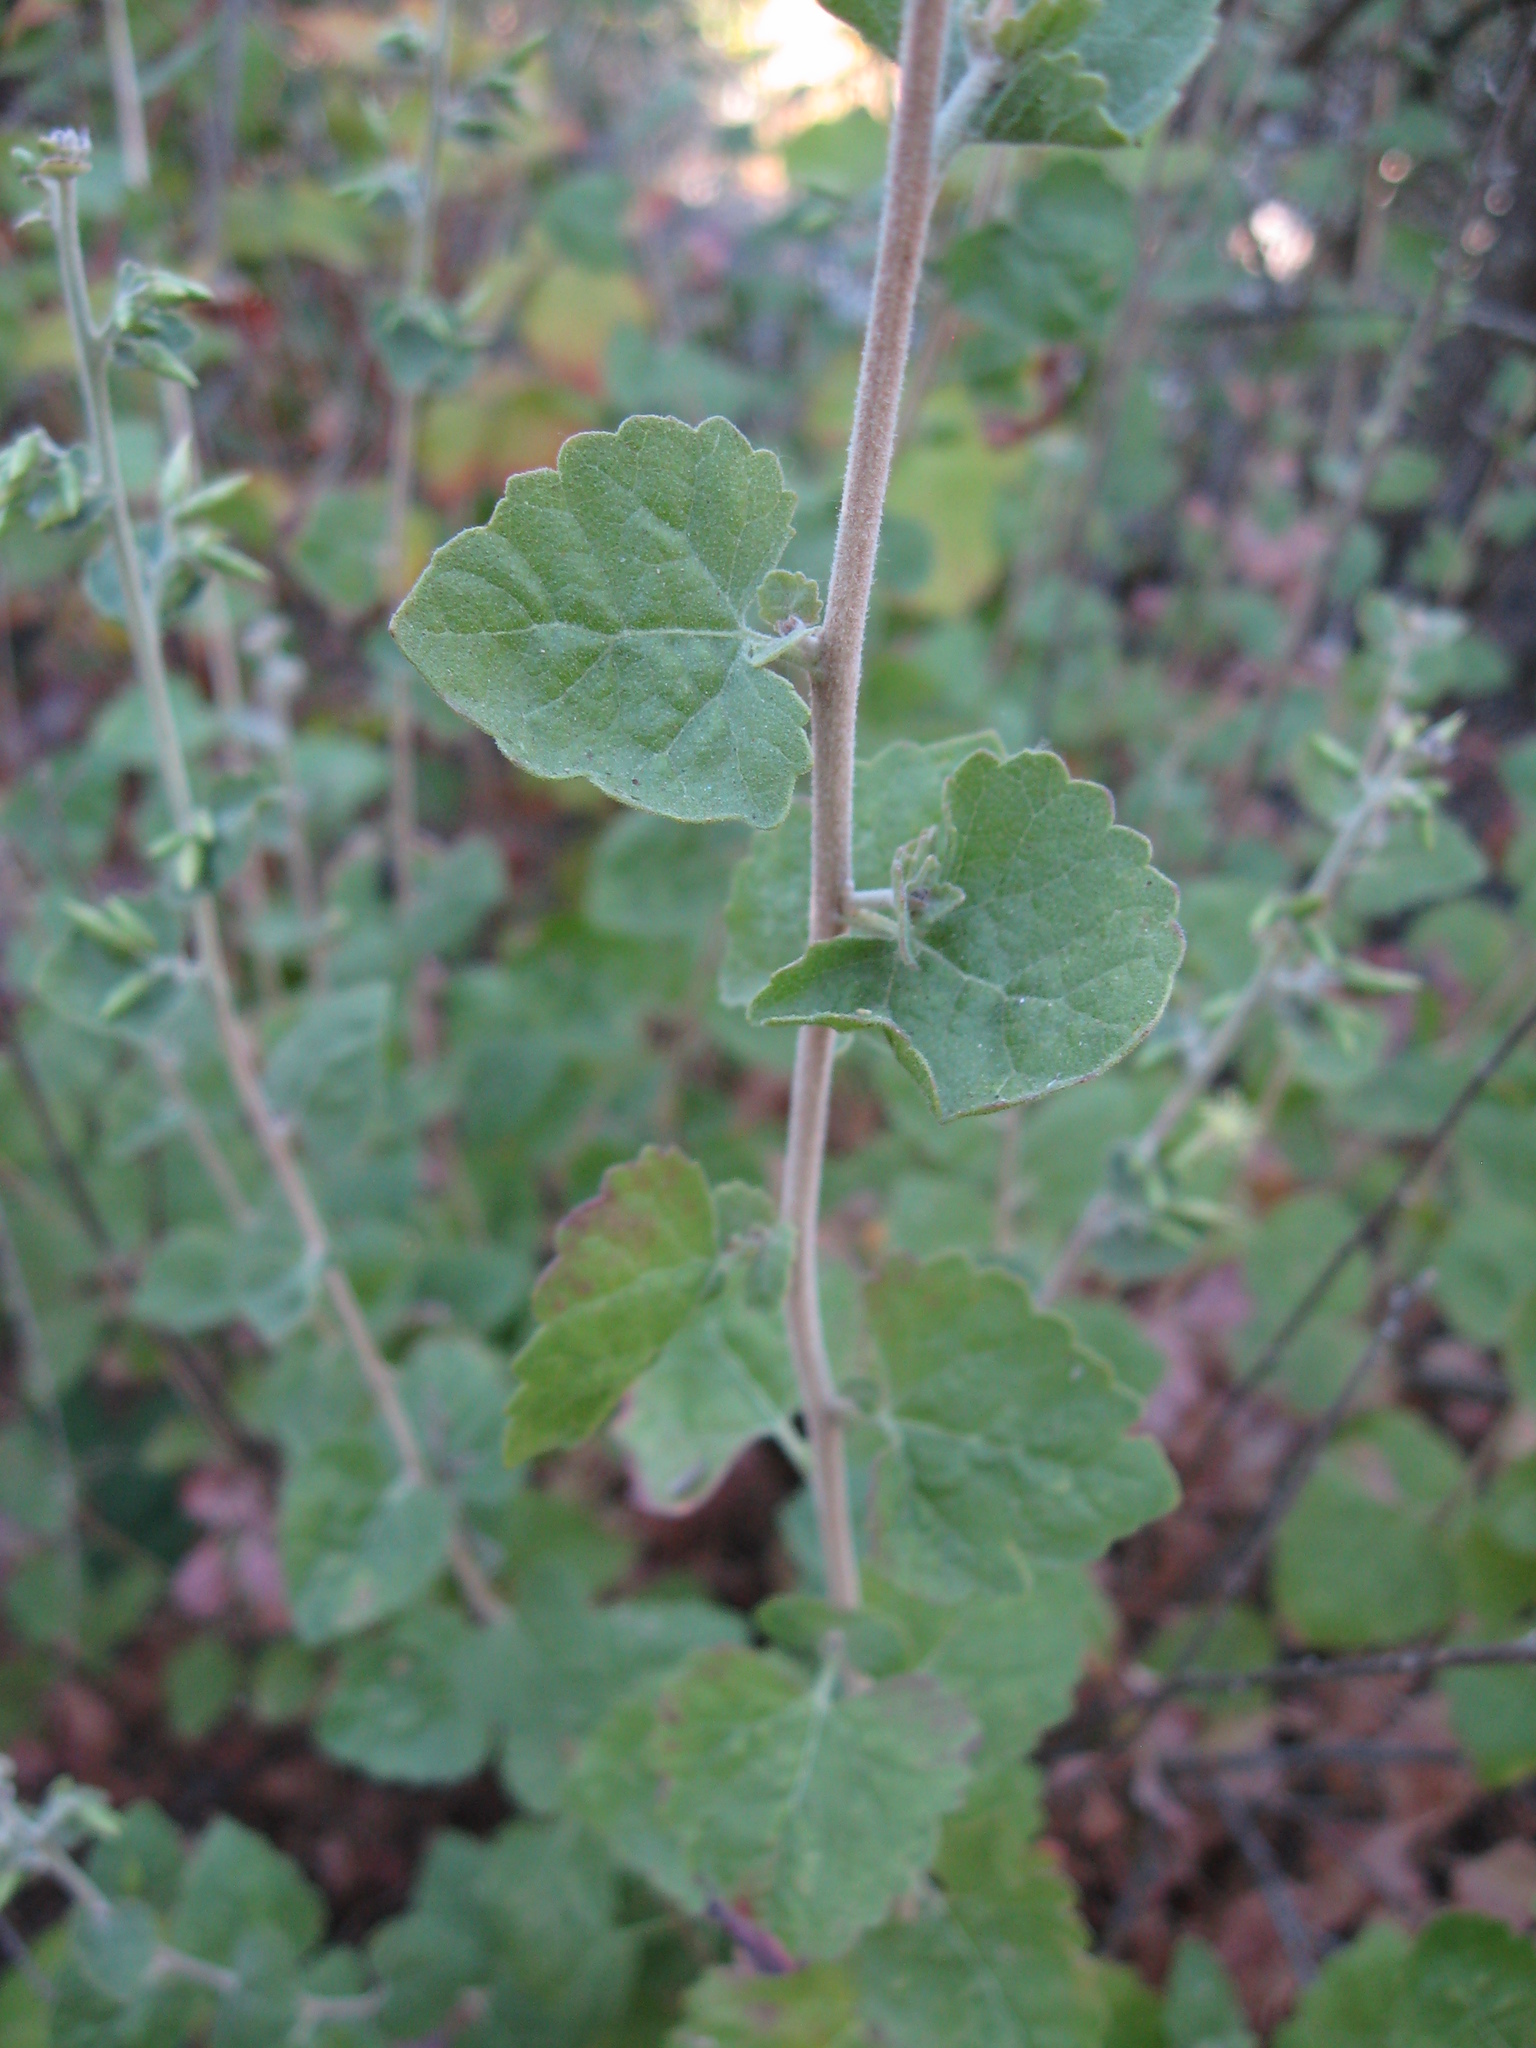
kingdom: Plantae
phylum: Tracheophyta
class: Magnoliopsida
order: Asterales
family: Asteraceae
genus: Brickellia
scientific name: Brickellia californica
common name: California brickellbush
